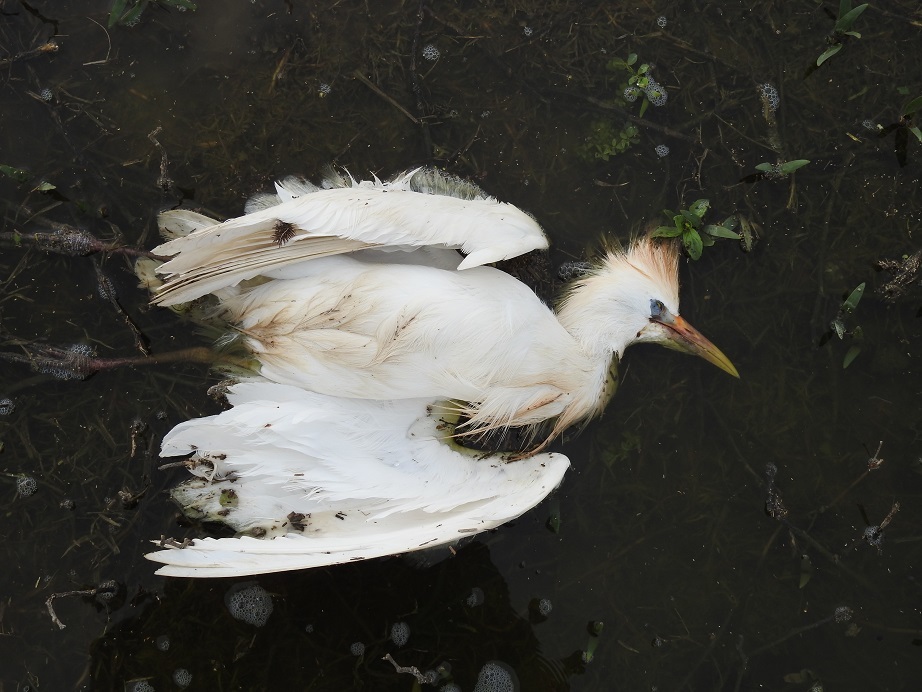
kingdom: Animalia
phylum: Chordata
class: Aves
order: Pelecaniformes
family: Ardeidae
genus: Bubulcus
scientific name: Bubulcus ibis
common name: Cattle egret
